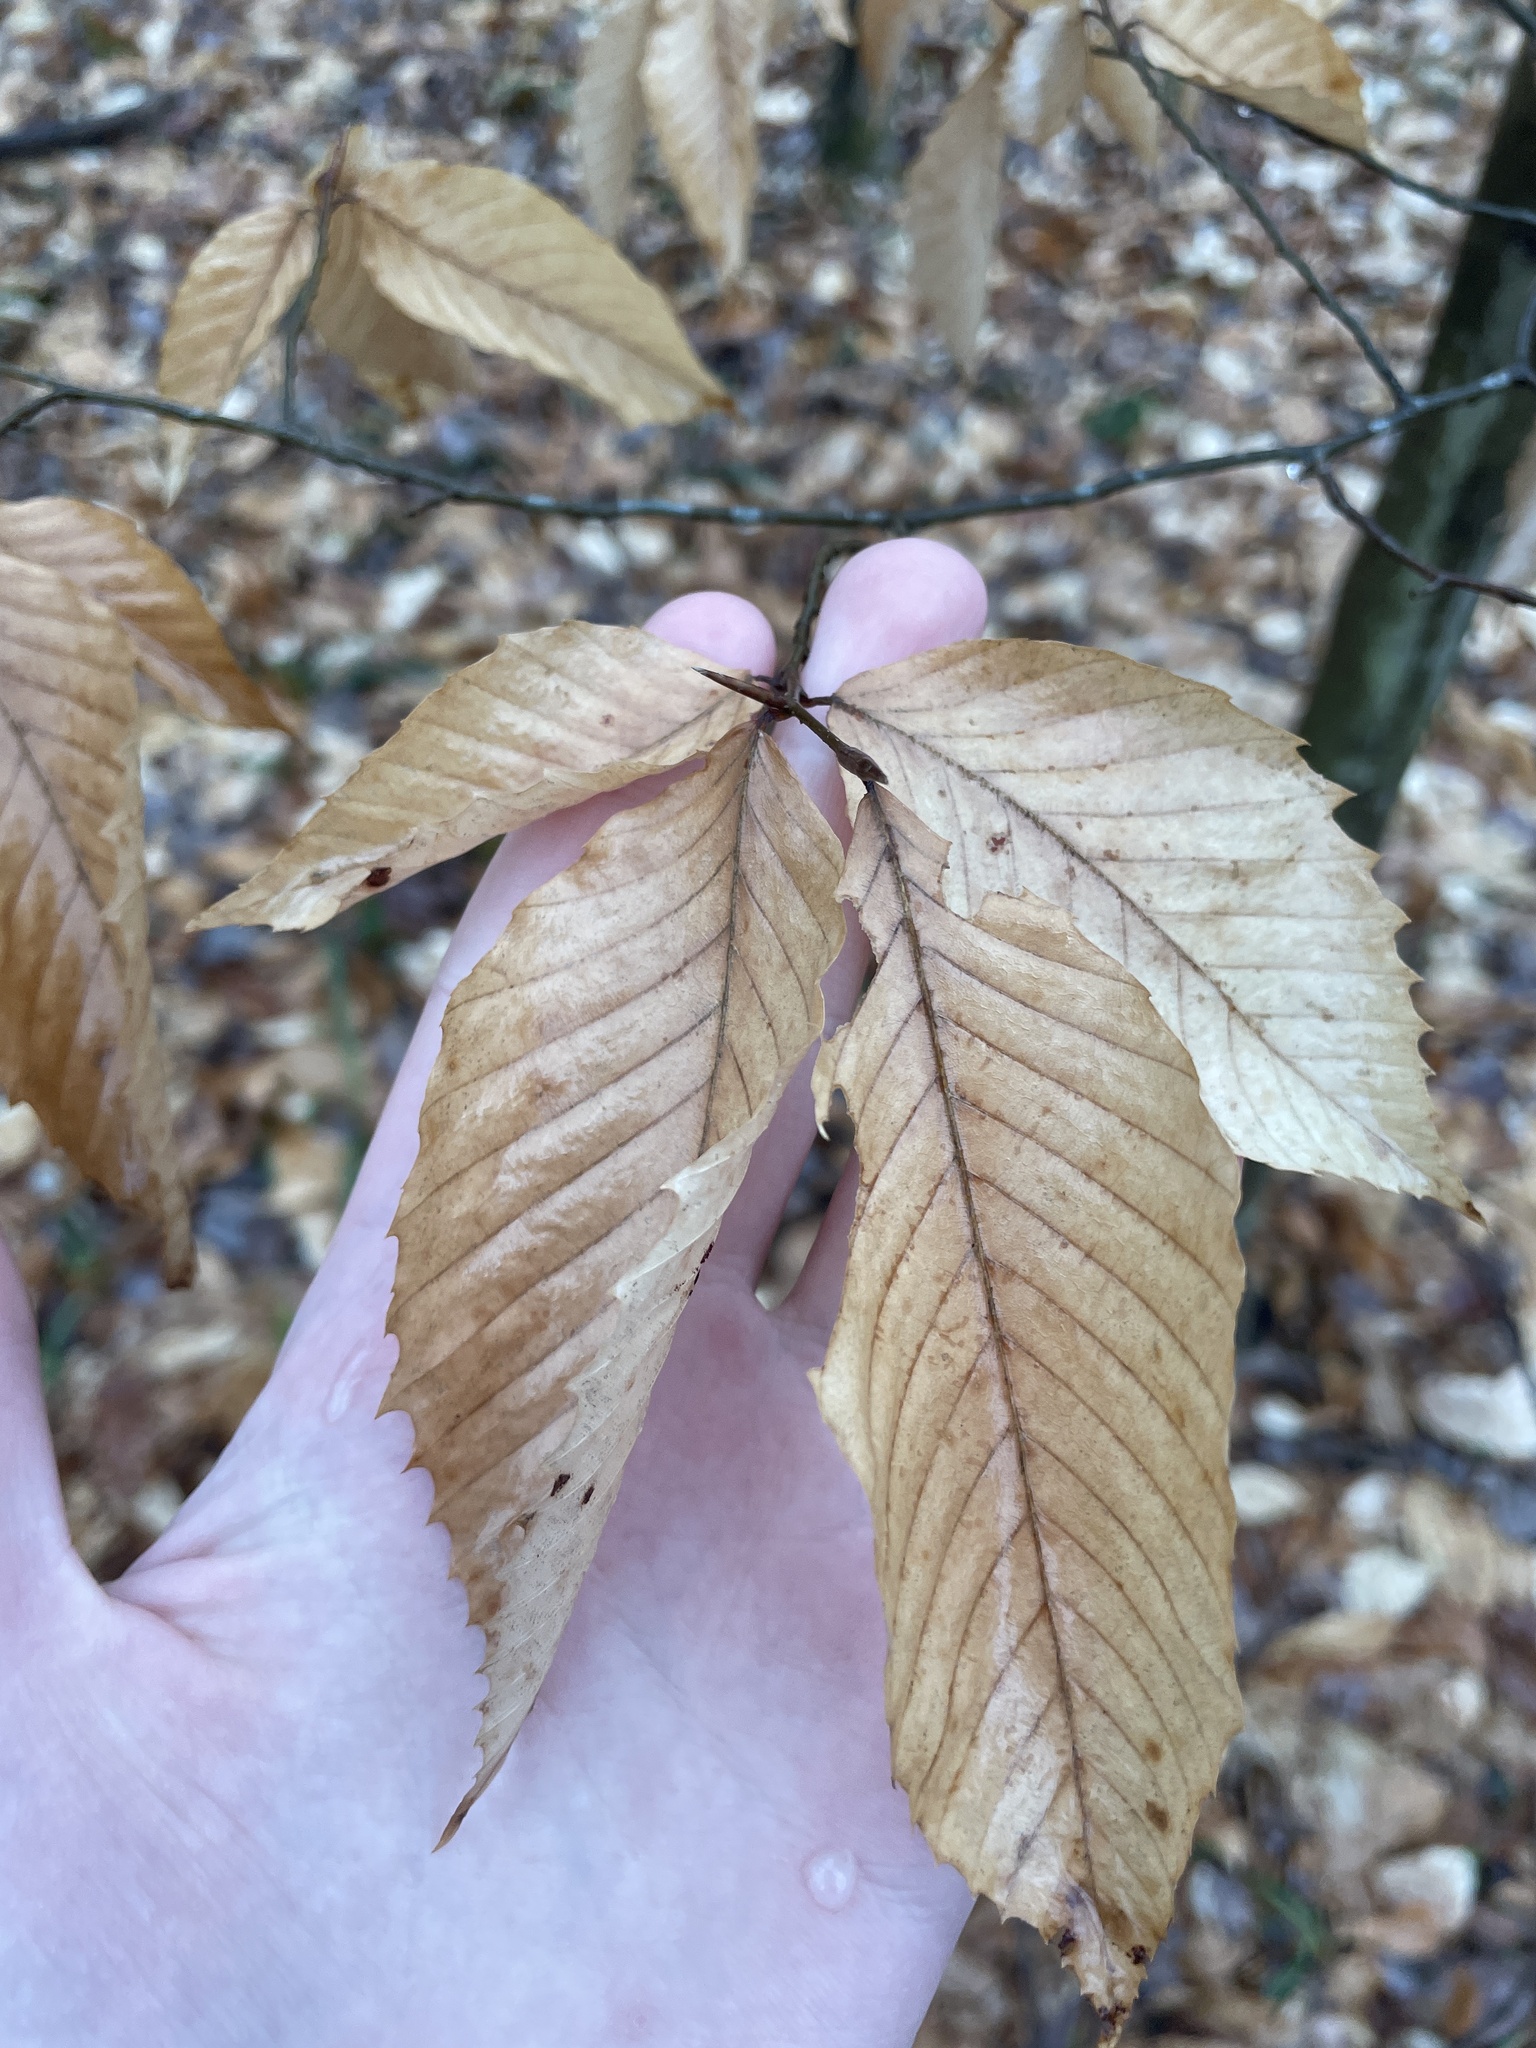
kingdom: Plantae
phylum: Tracheophyta
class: Magnoliopsida
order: Fagales
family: Fagaceae
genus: Fagus
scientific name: Fagus grandifolia
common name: American beech
